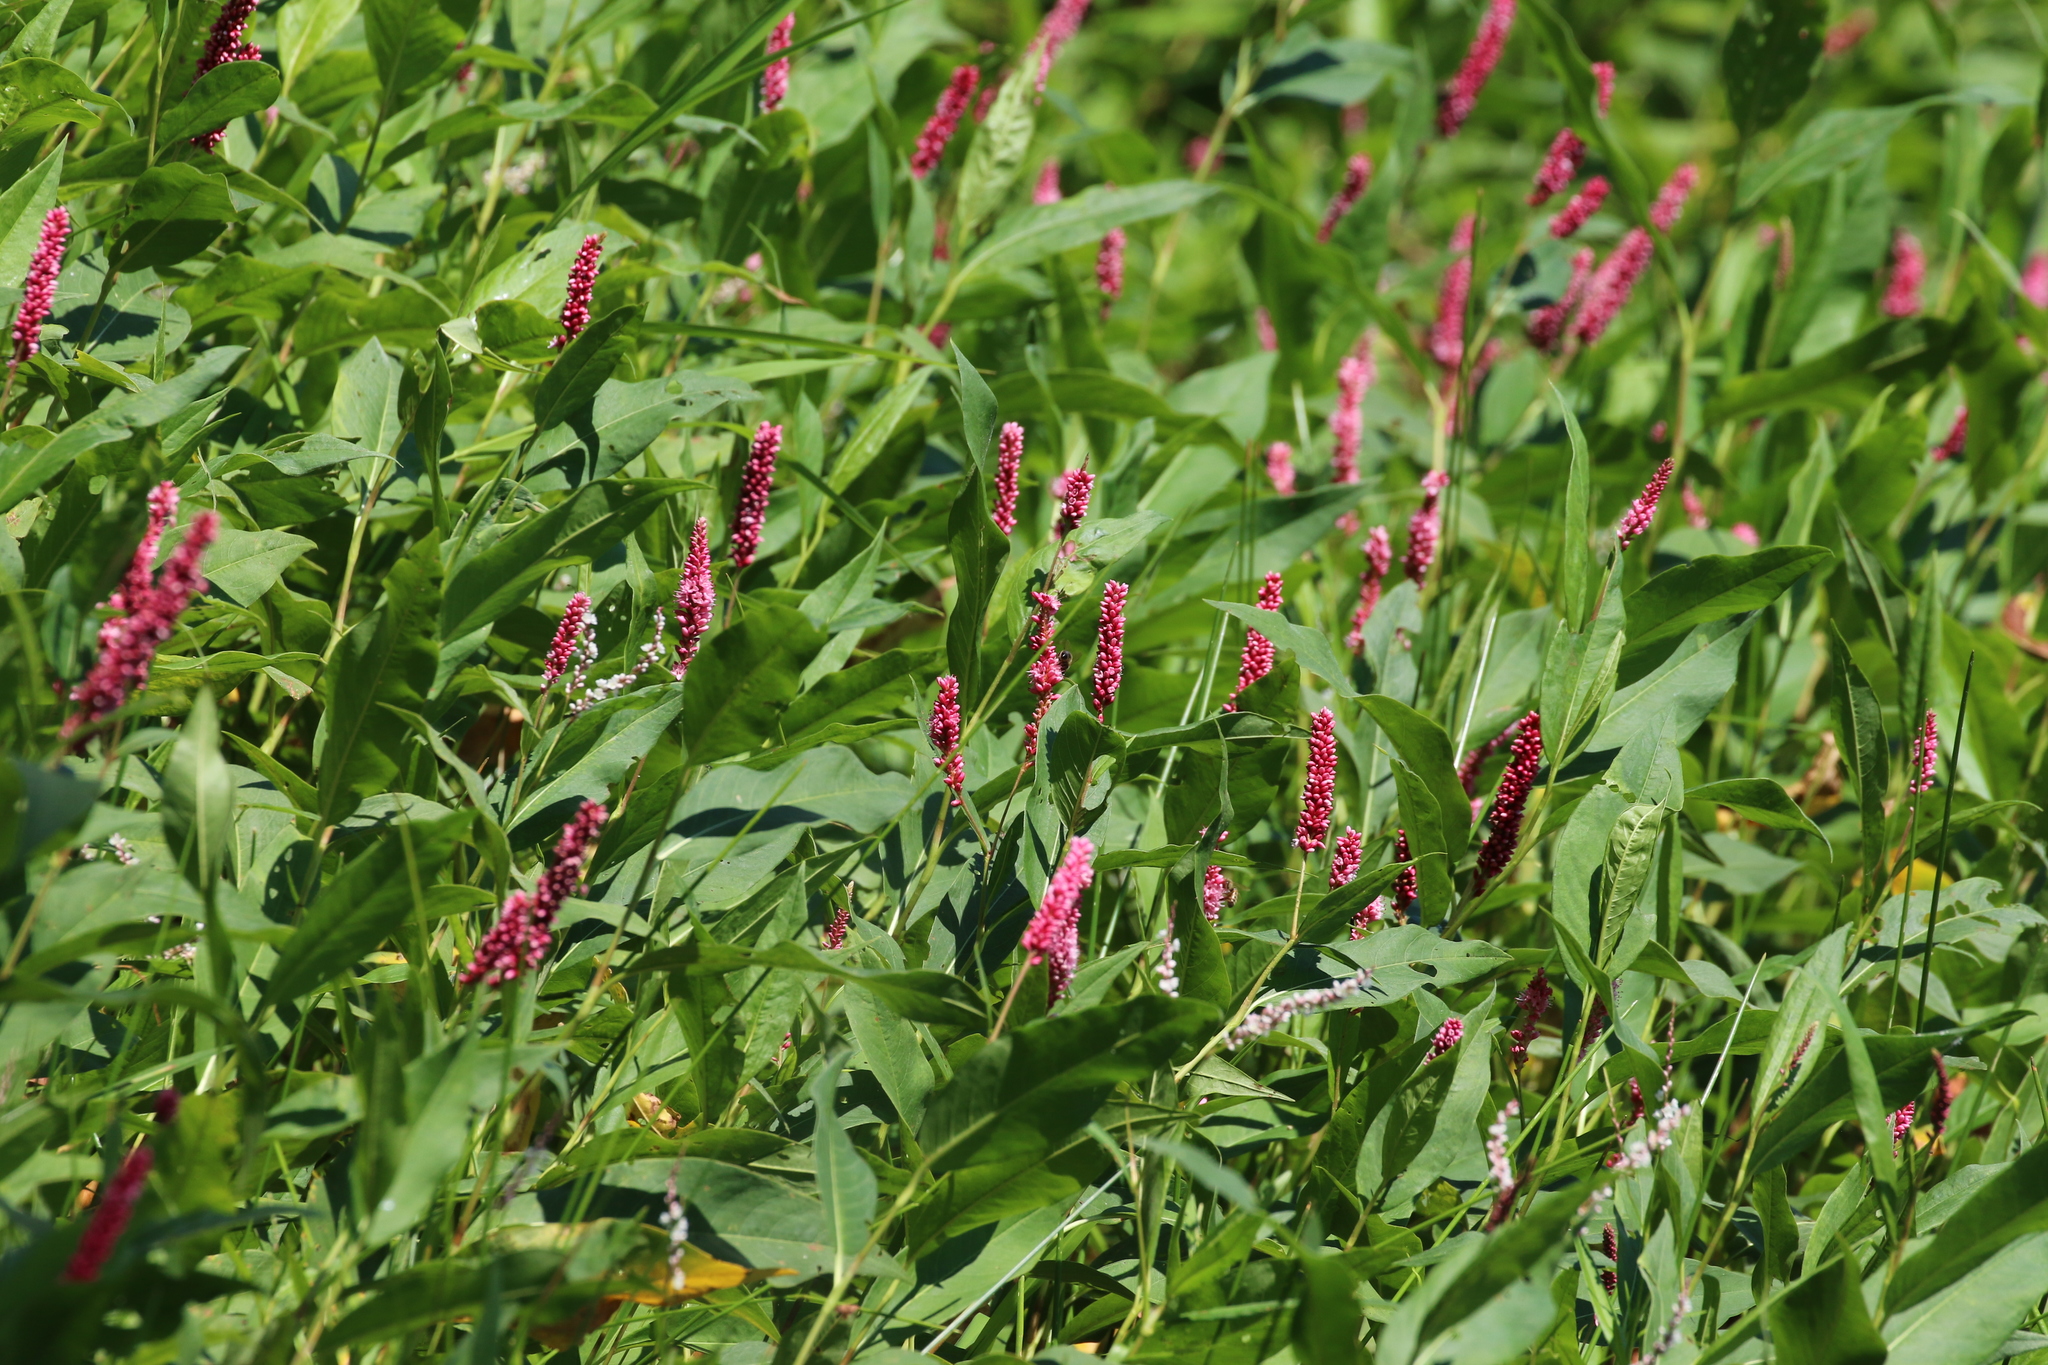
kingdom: Plantae
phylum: Tracheophyta
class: Magnoliopsida
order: Caryophyllales
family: Polygonaceae
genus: Persicaria
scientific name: Persicaria amphibia
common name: Amphibious bistort
